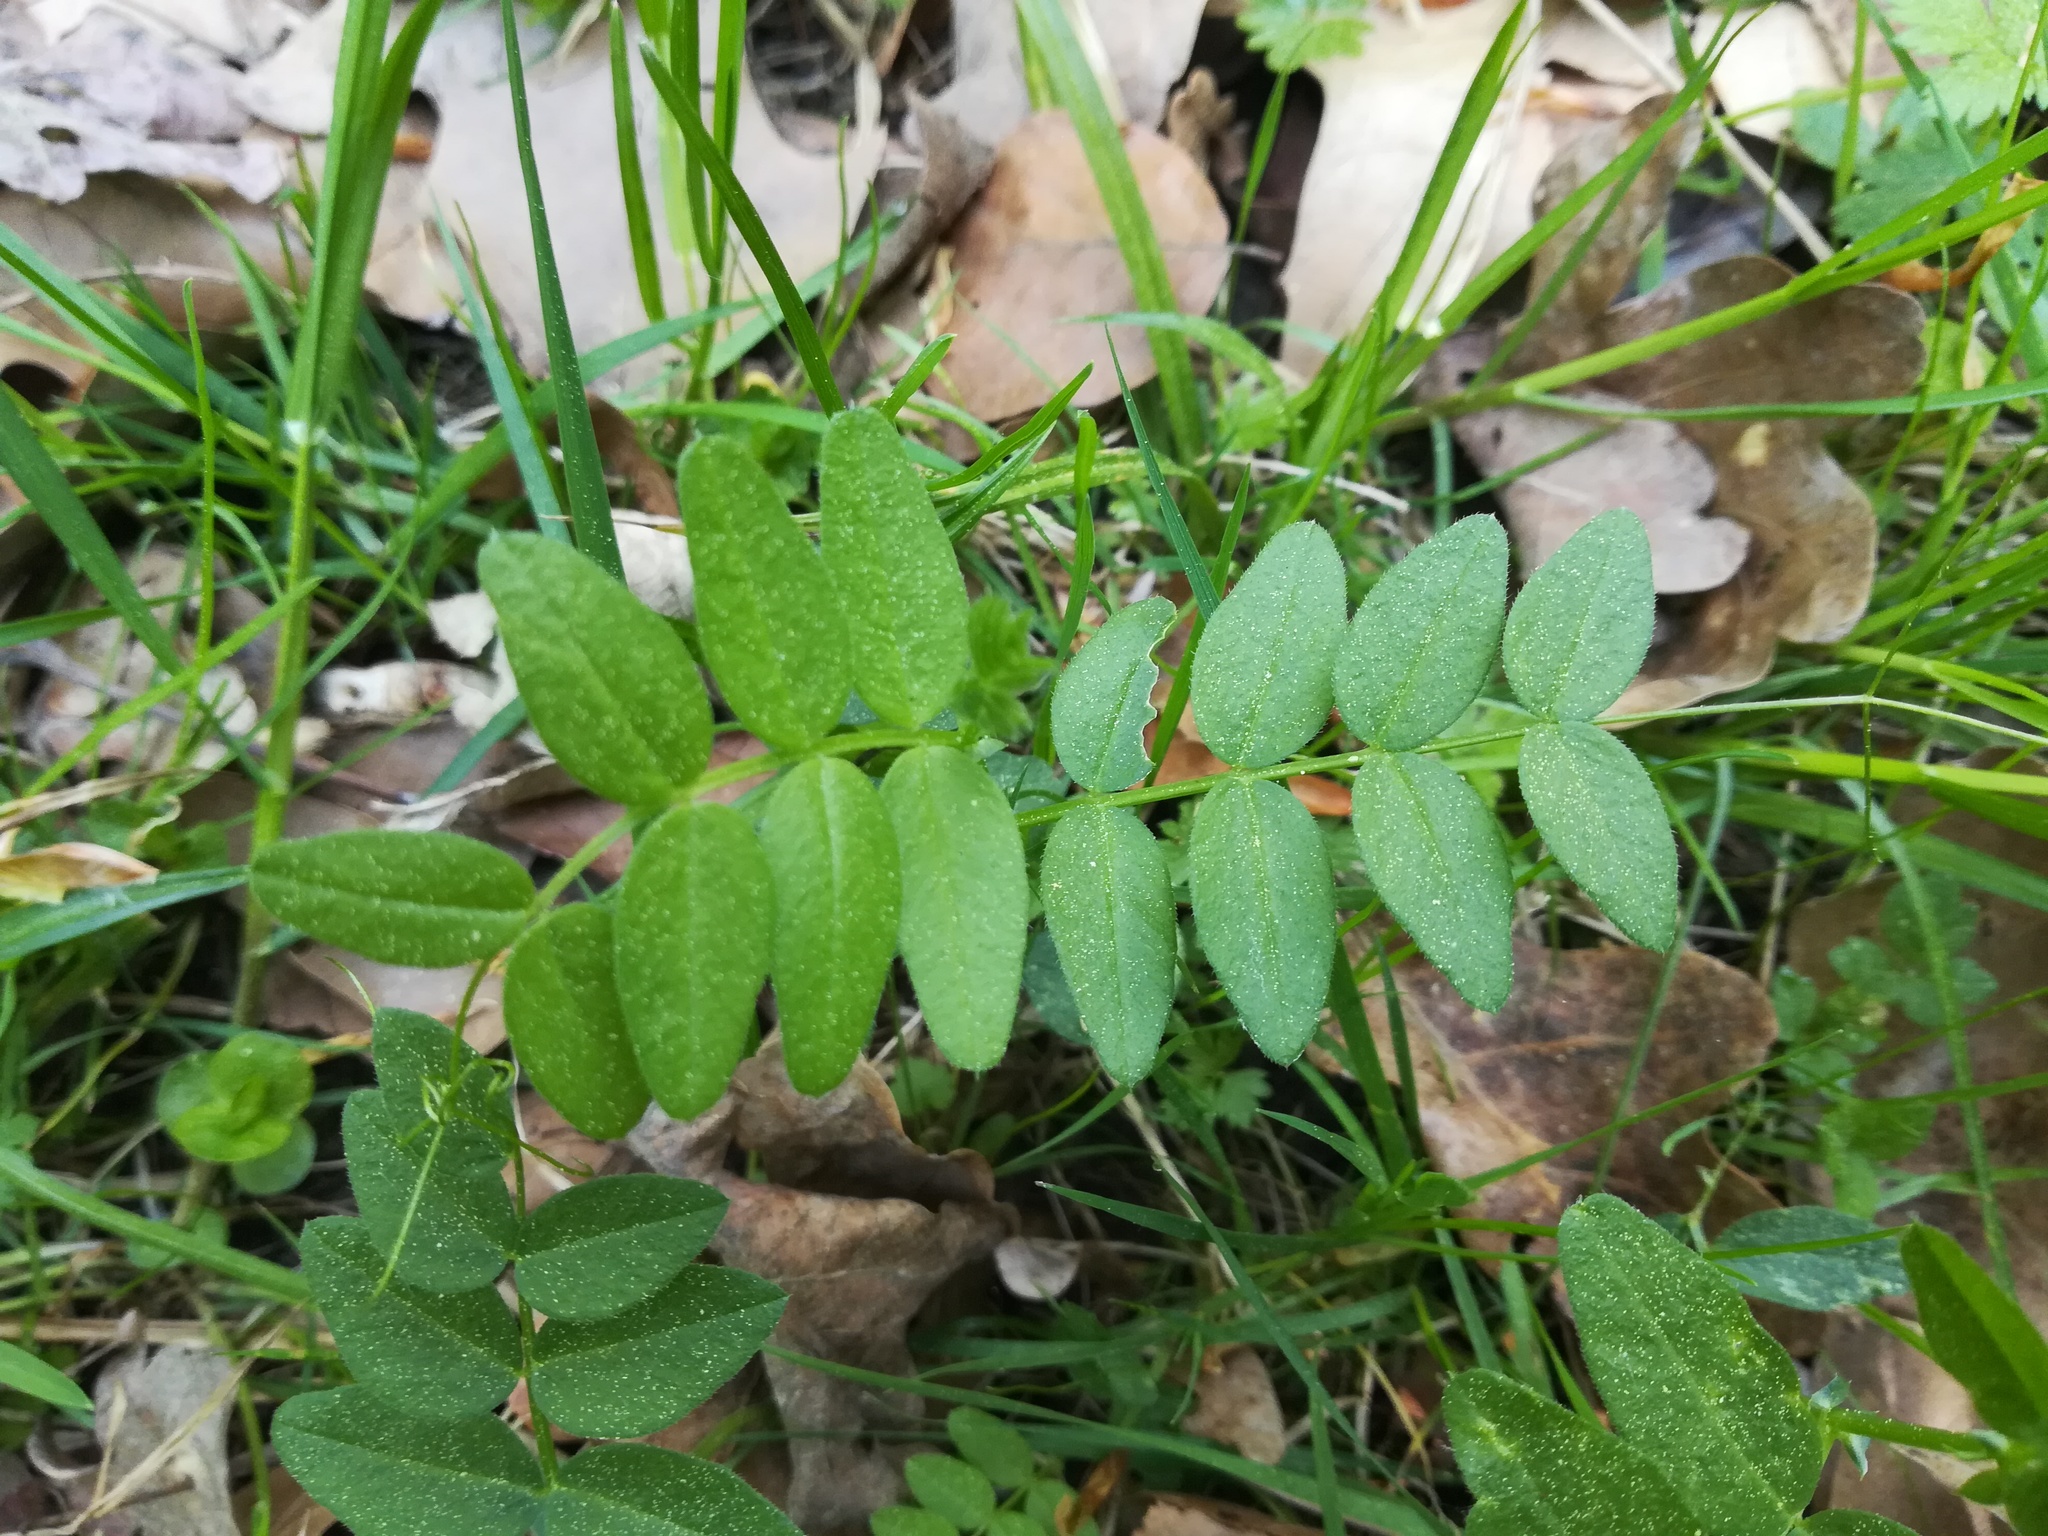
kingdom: Plantae
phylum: Tracheophyta
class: Magnoliopsida
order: Fabales
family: Fabaceae
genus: Vicia
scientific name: Vicia sepium
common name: Bush vetch
